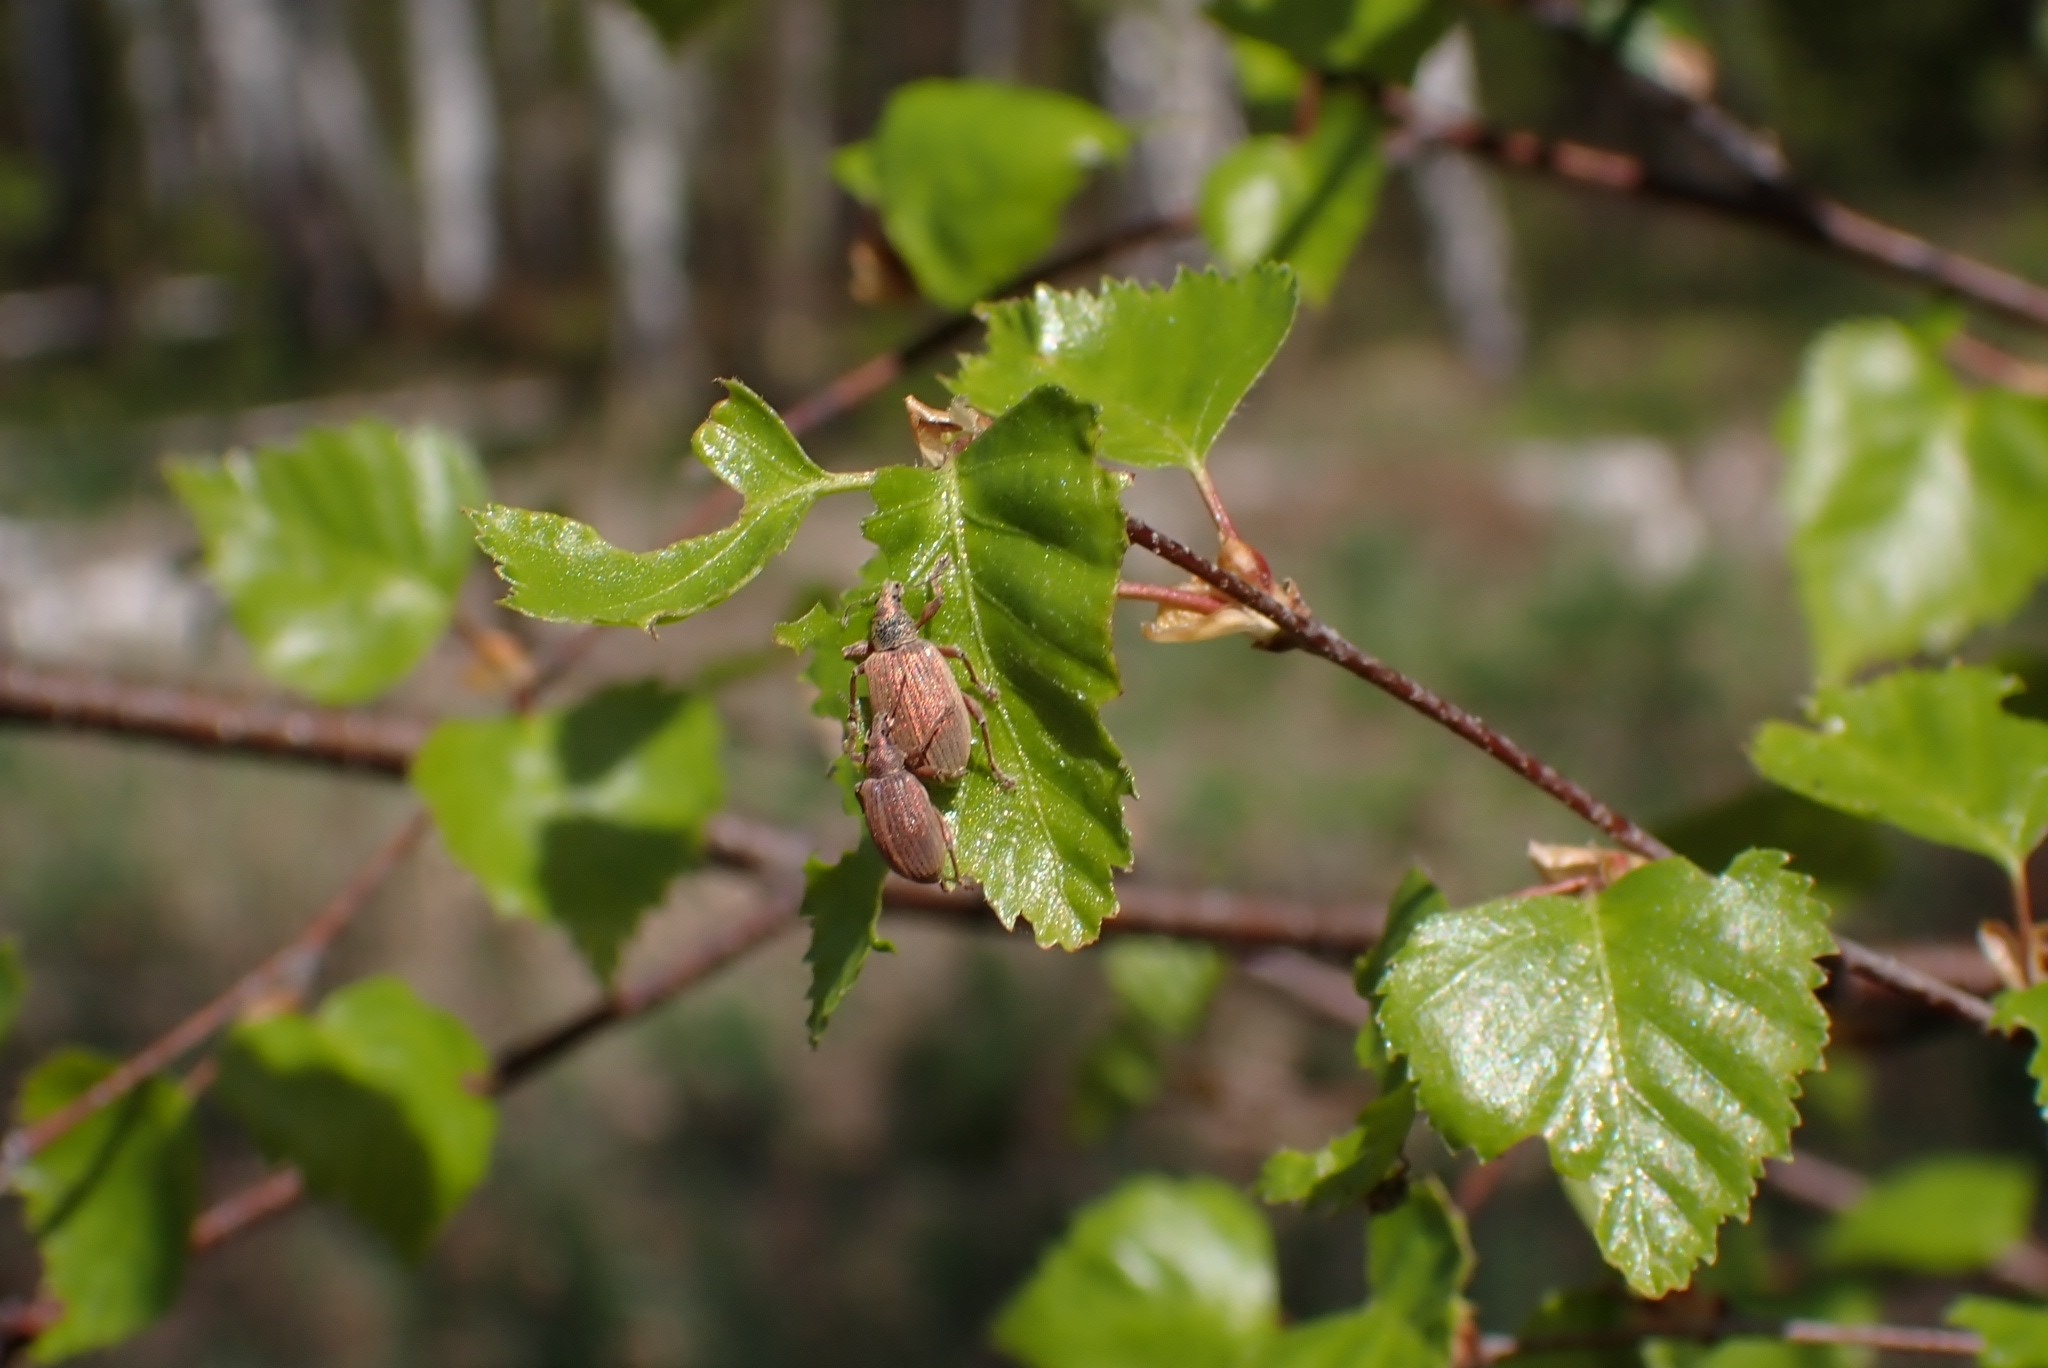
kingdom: Animalia
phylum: Arthropoda
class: Insecta
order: Coleoptera
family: Curculionidae
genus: Polydrusus
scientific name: Polydrusus mollis
